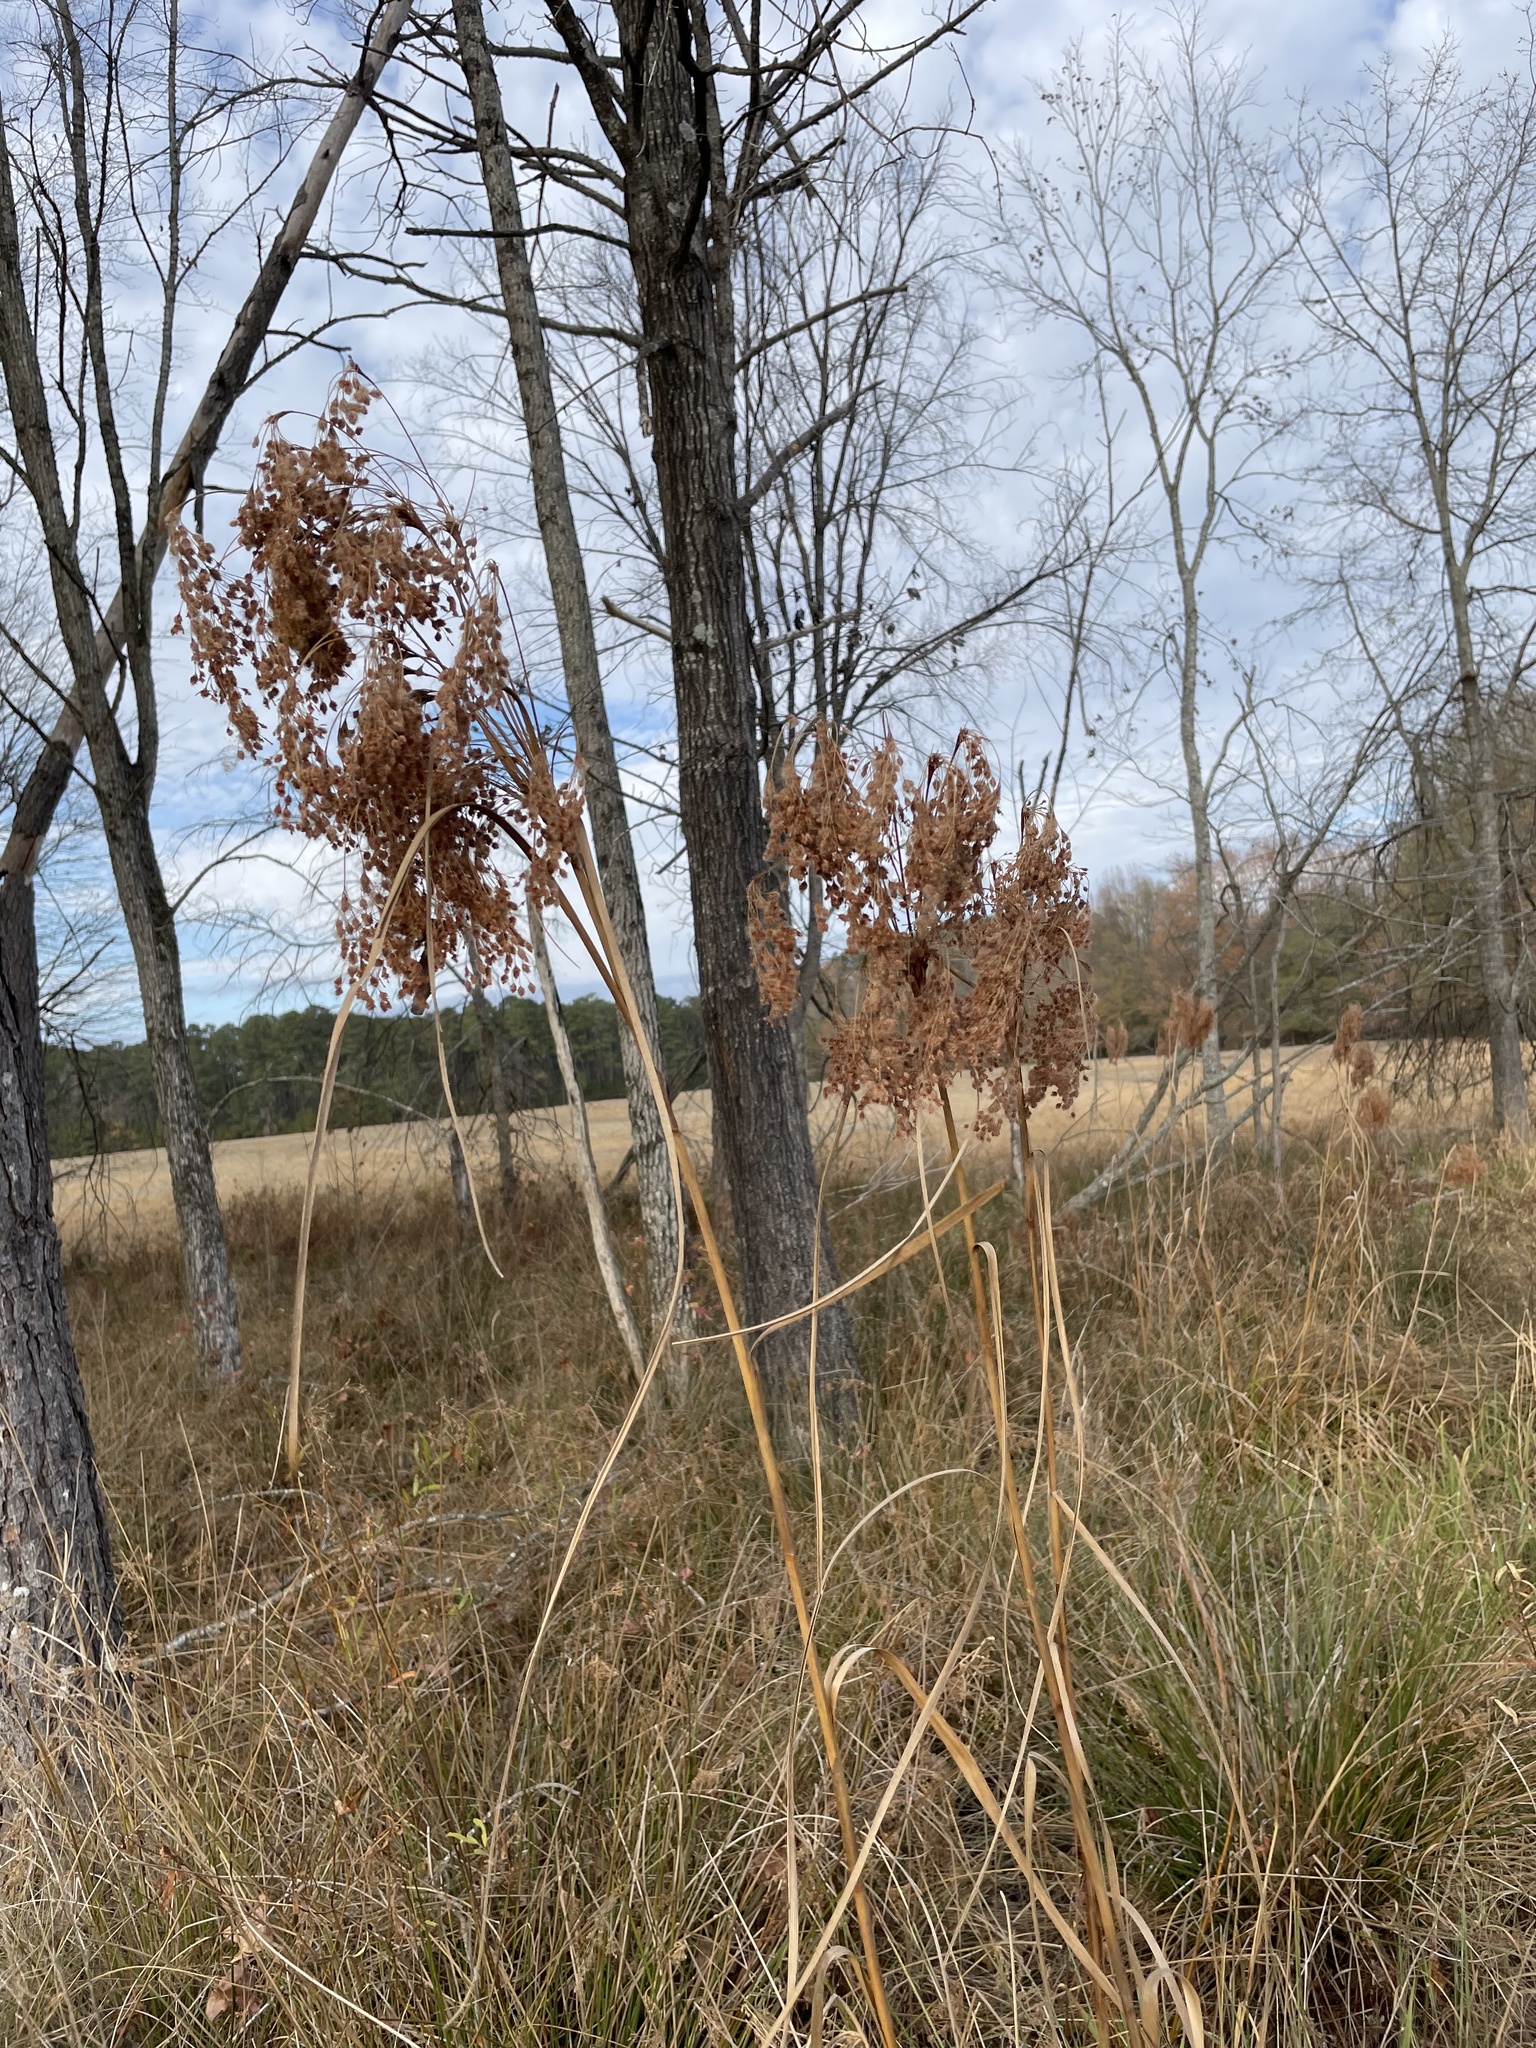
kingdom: Plantae
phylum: Tracheophyta
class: Liliopsida
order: Poales
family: Cyperaceae
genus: Scirpus
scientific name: Scirpus cyperinus
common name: Black-sheathed bulrush
